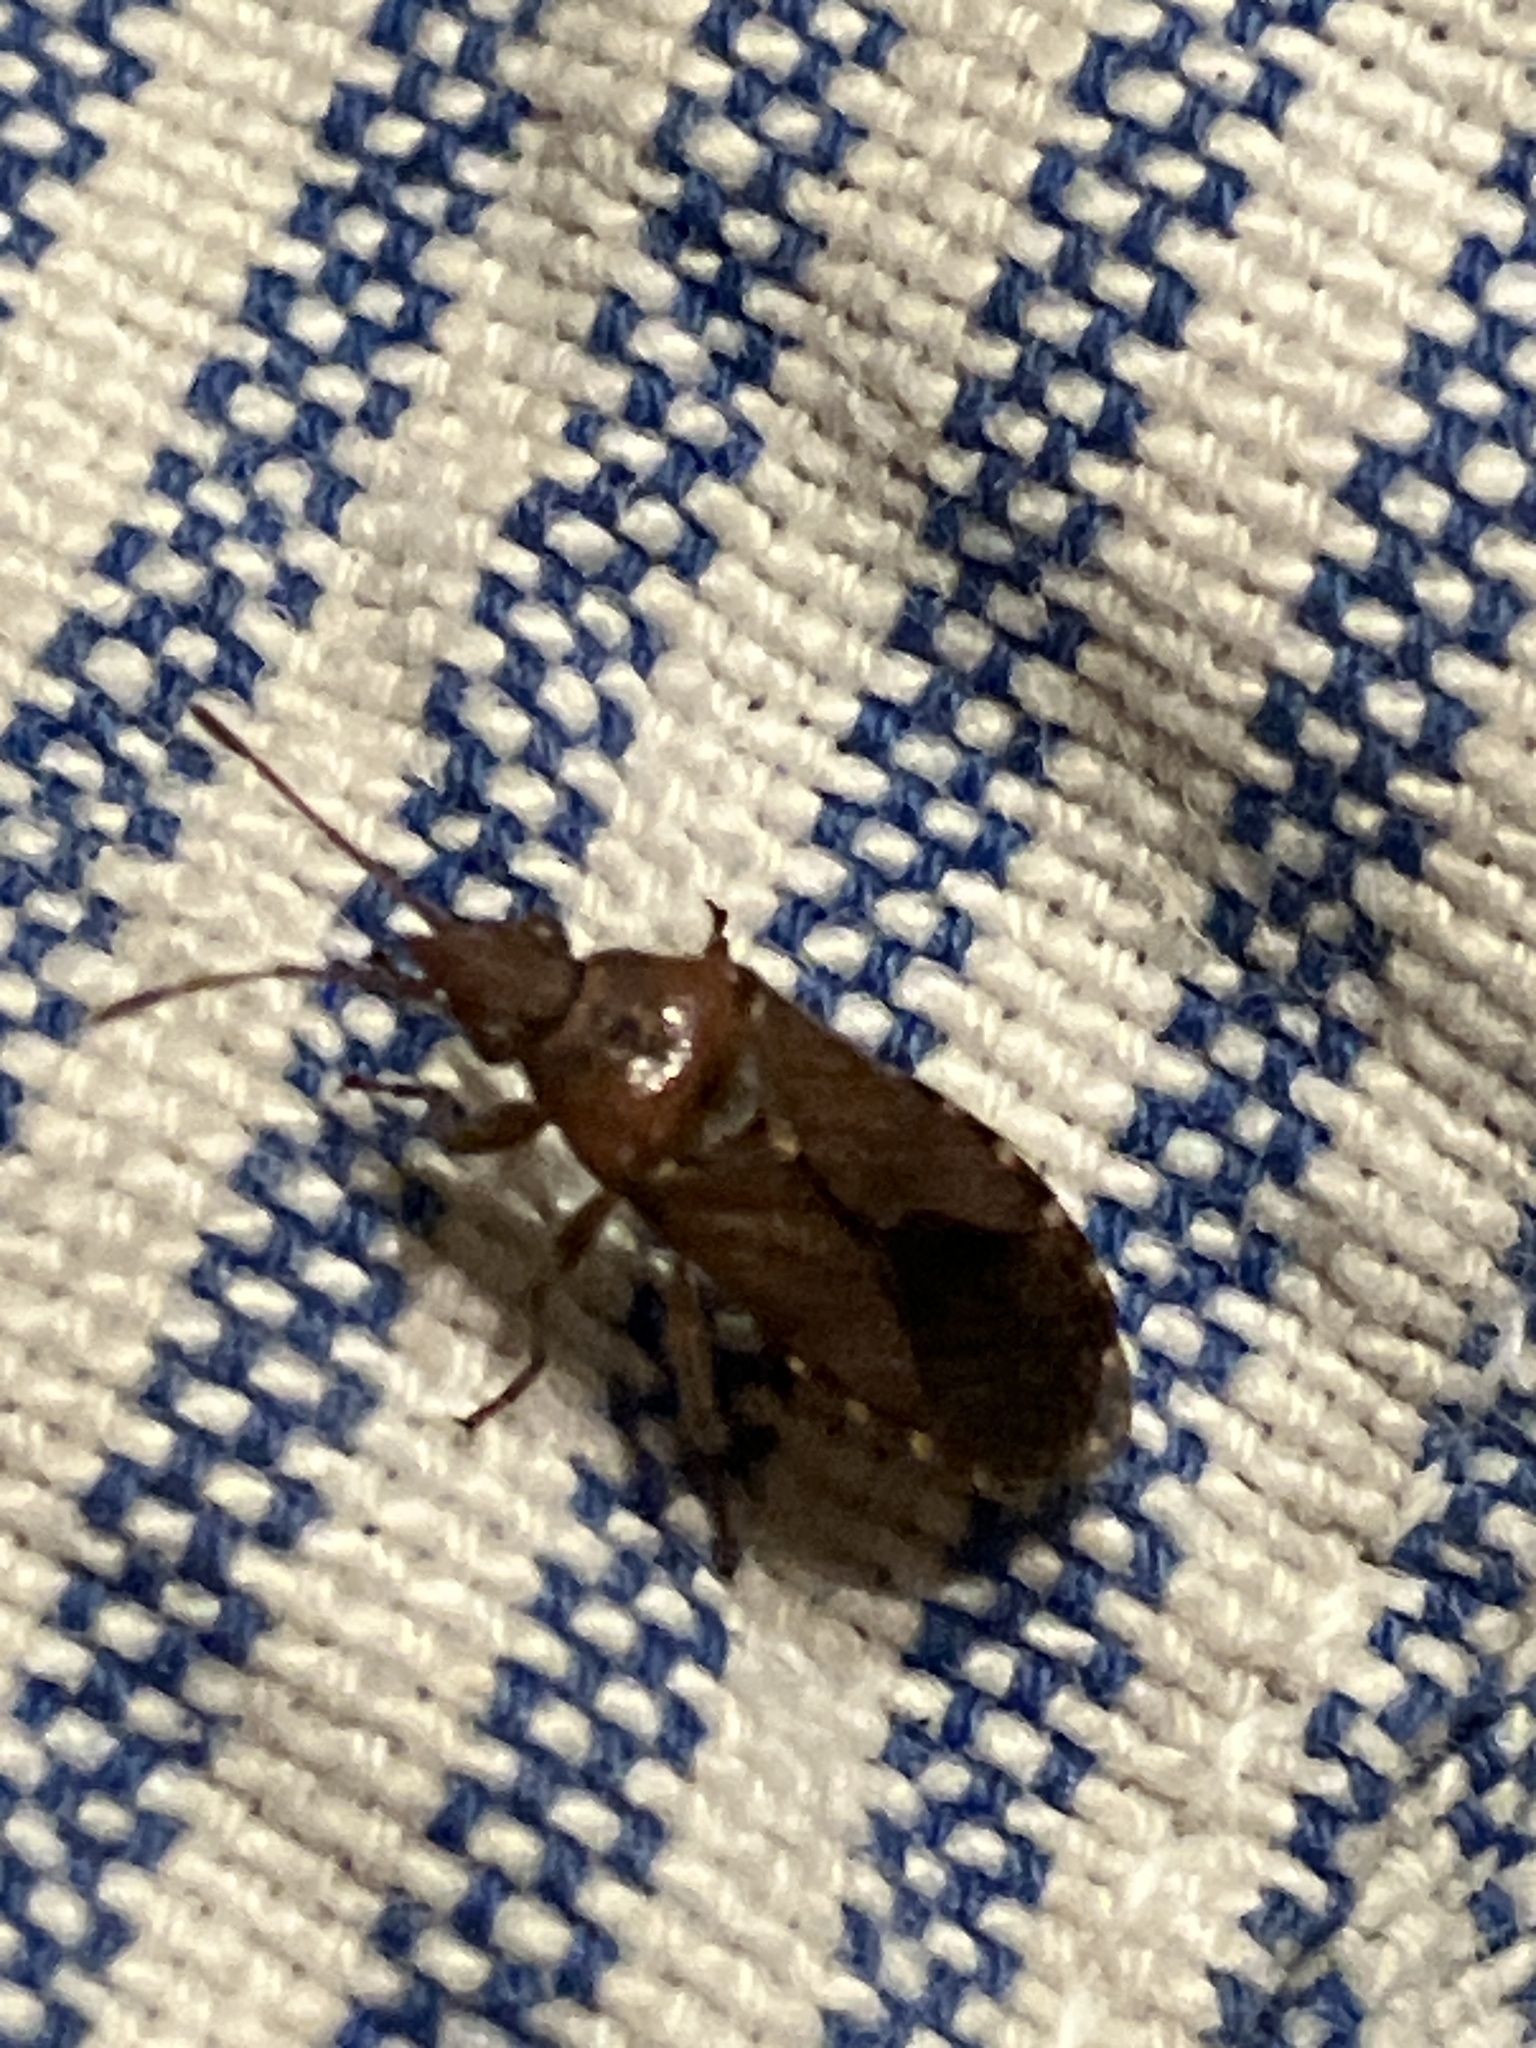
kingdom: Animalia
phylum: Arthropoda
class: Insecta
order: Hemiptera
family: Lygaeidae
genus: Orsillus
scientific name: Orsillus depressus
